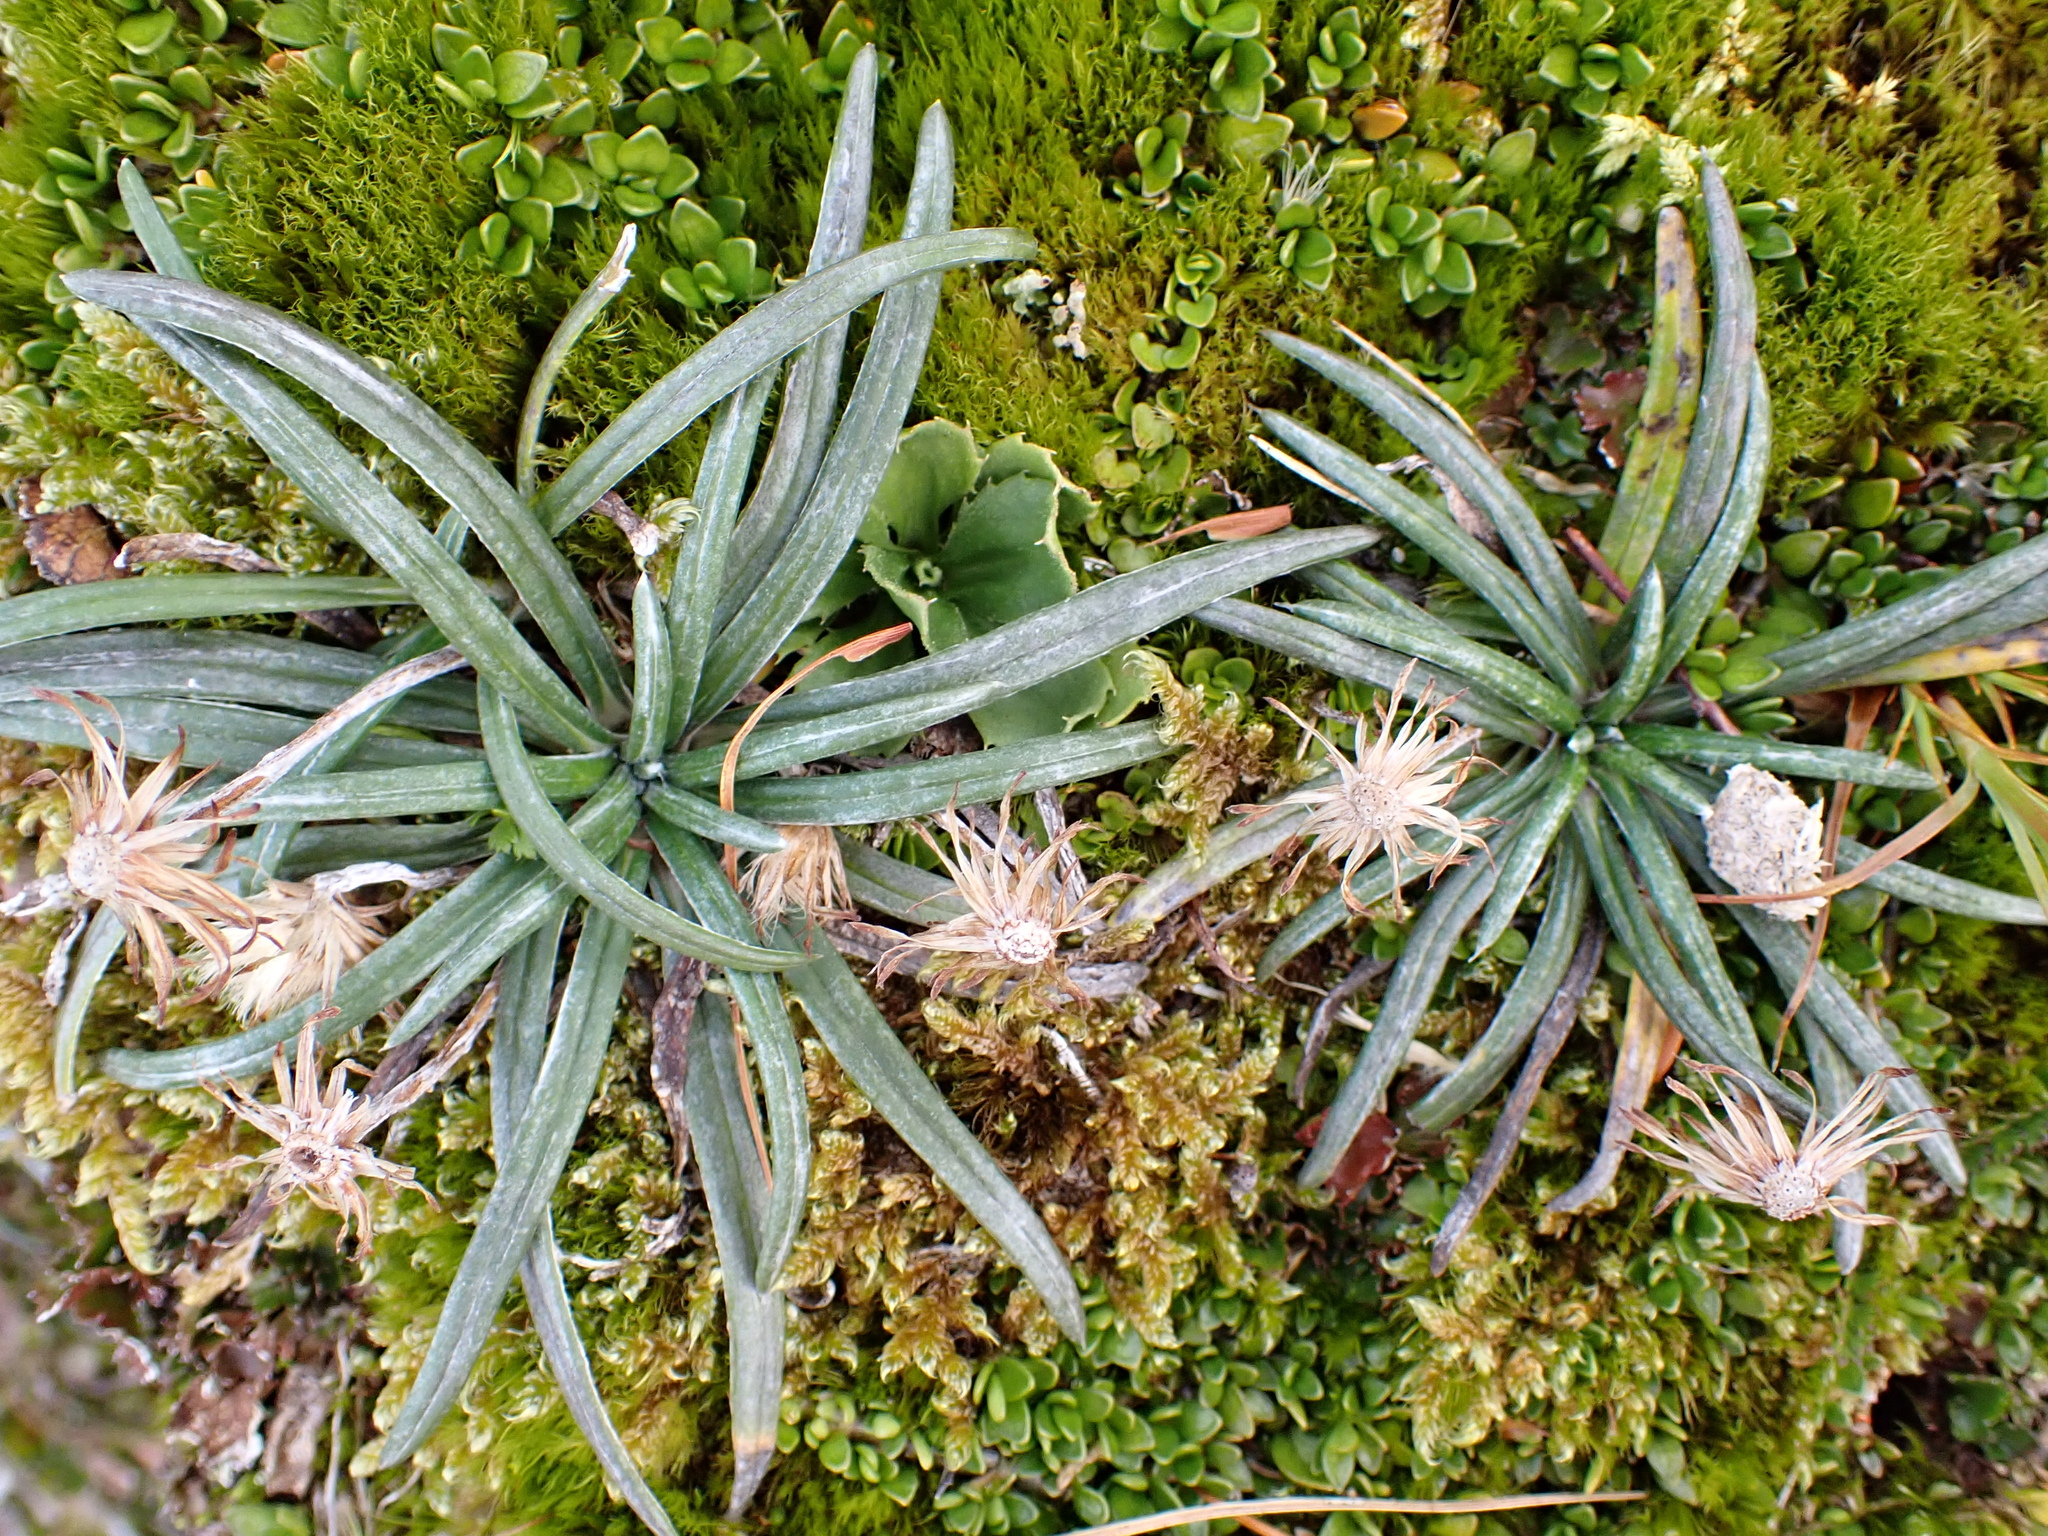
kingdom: Plantae
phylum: Tracheophyta
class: Magnoliopsida
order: Asterales
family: Asteraceae
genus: Celmisia
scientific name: Celmisia major
